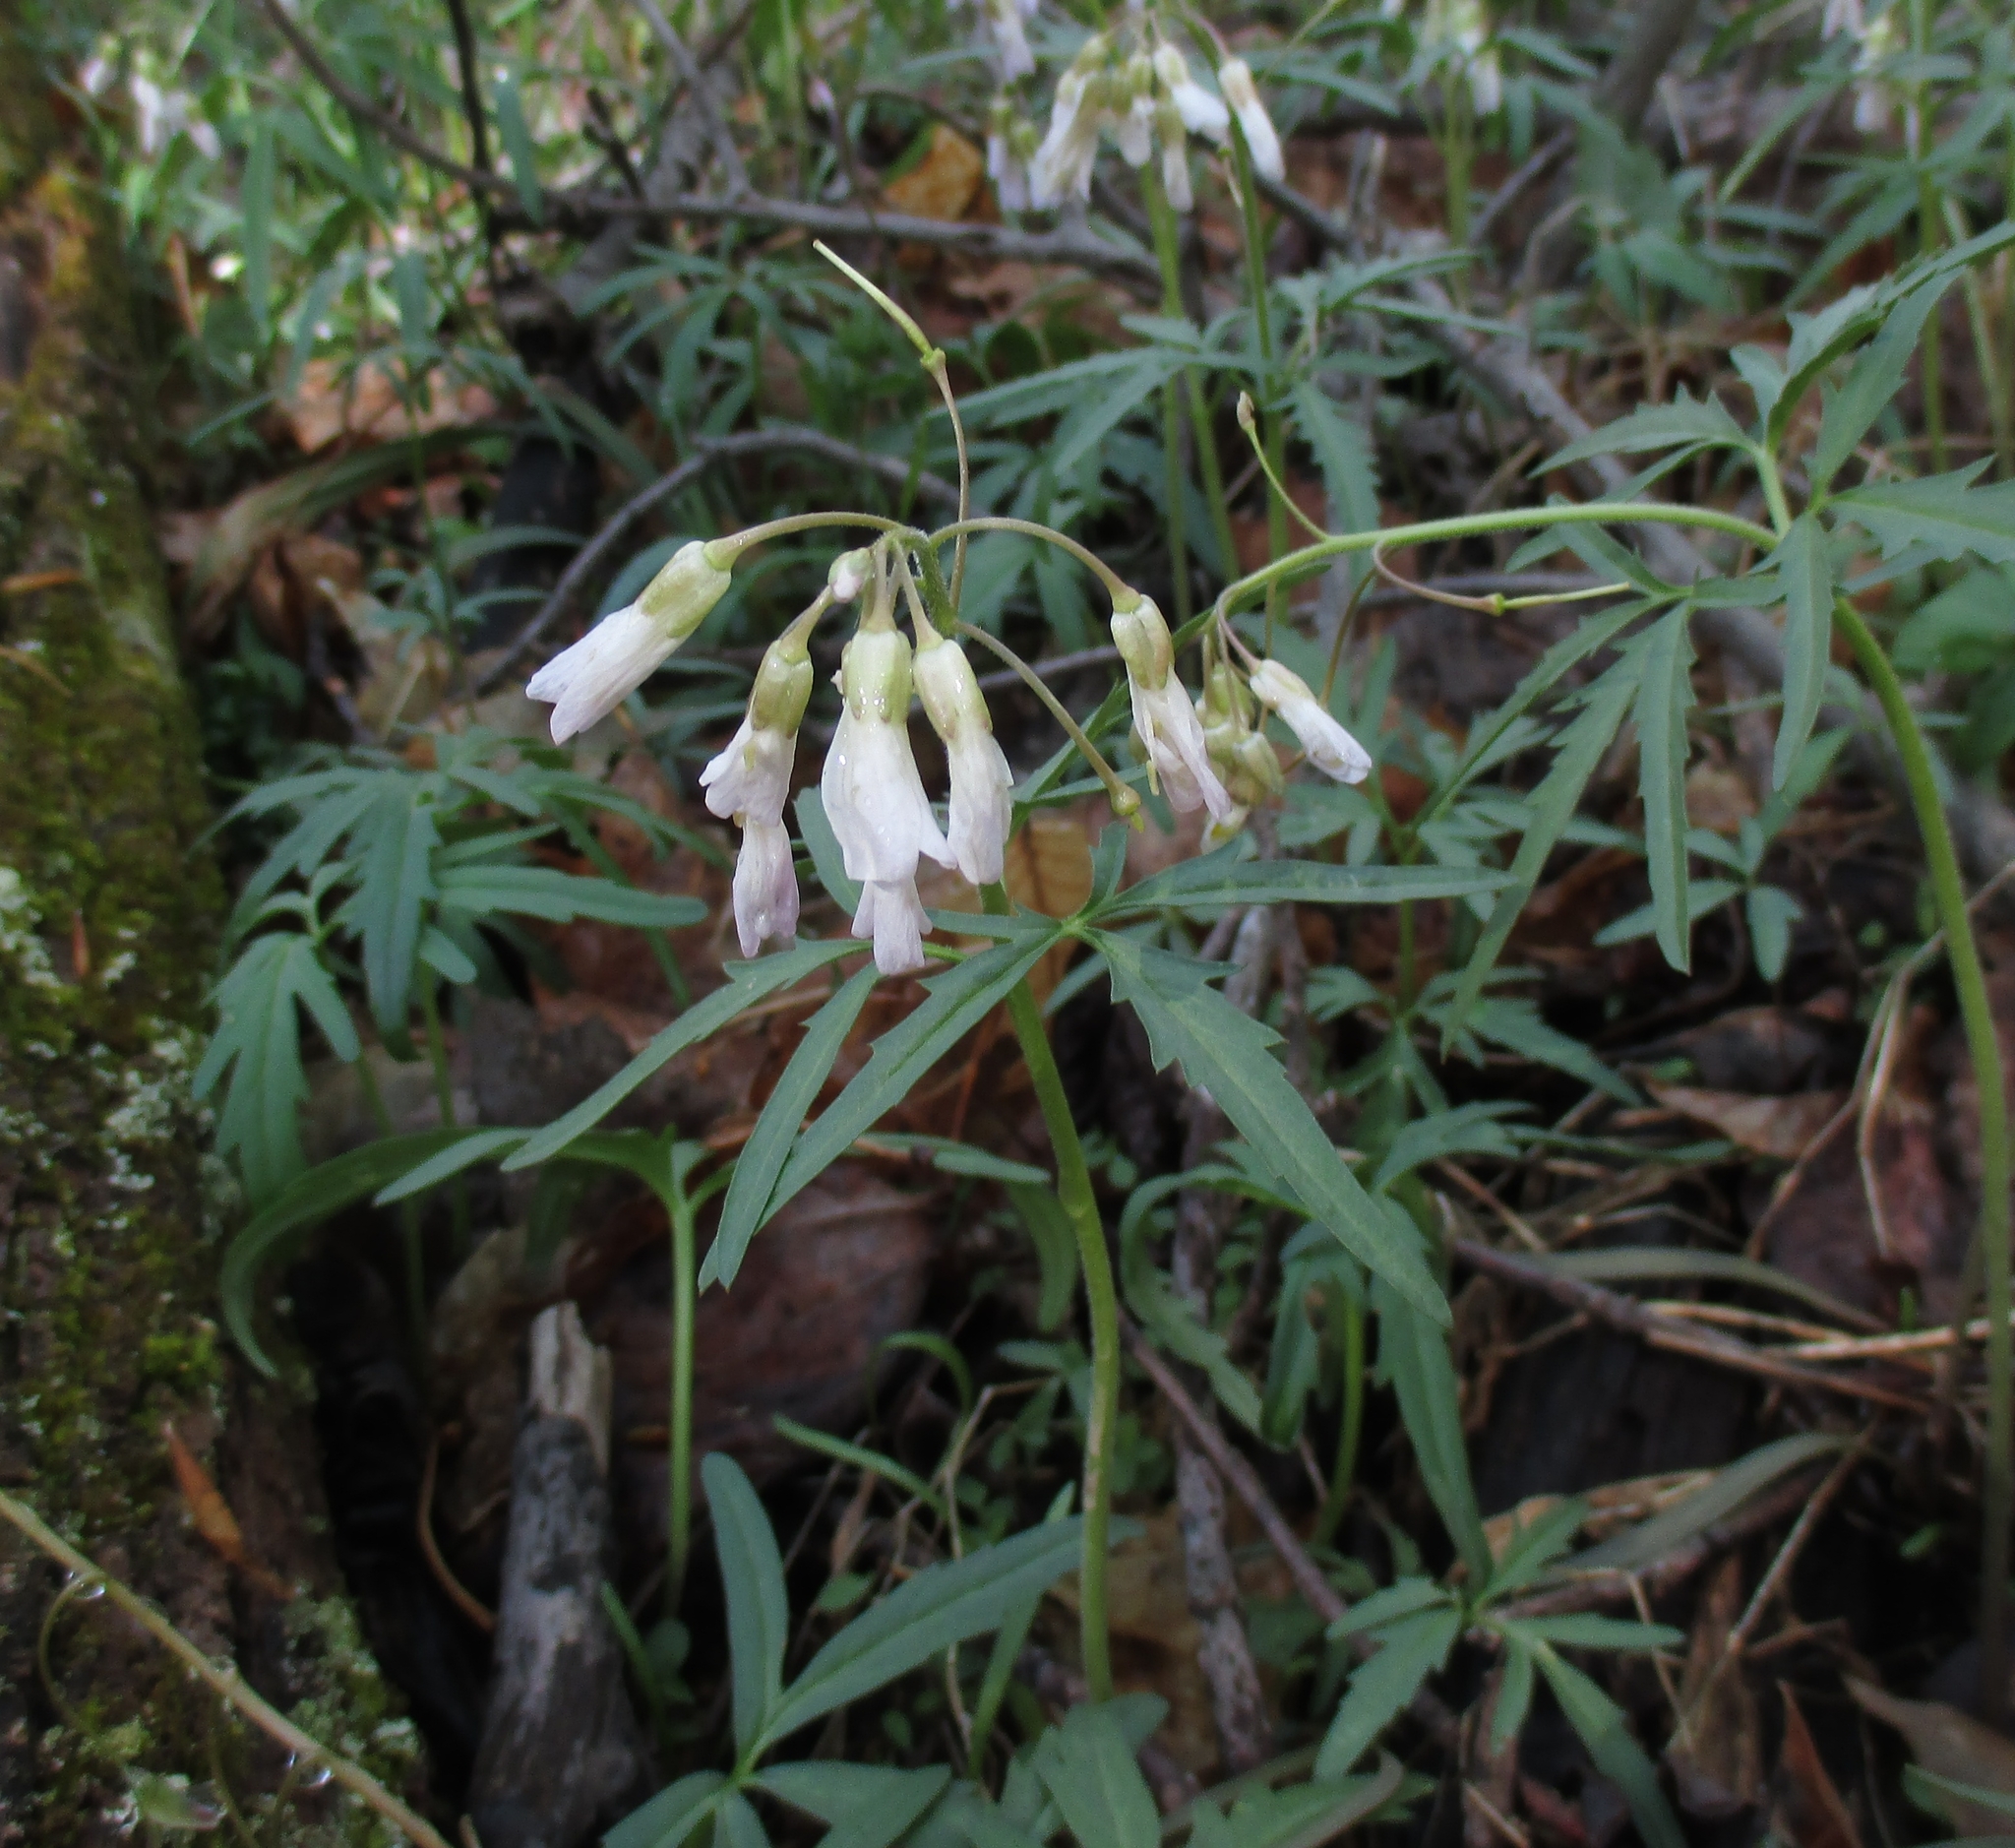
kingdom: Plantae
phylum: Tracheophyta
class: Magnoliopsida
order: Brassicales
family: Brassicaceae
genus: Cardamine
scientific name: Cardamine concatenata
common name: Cut-leaf toothcup
